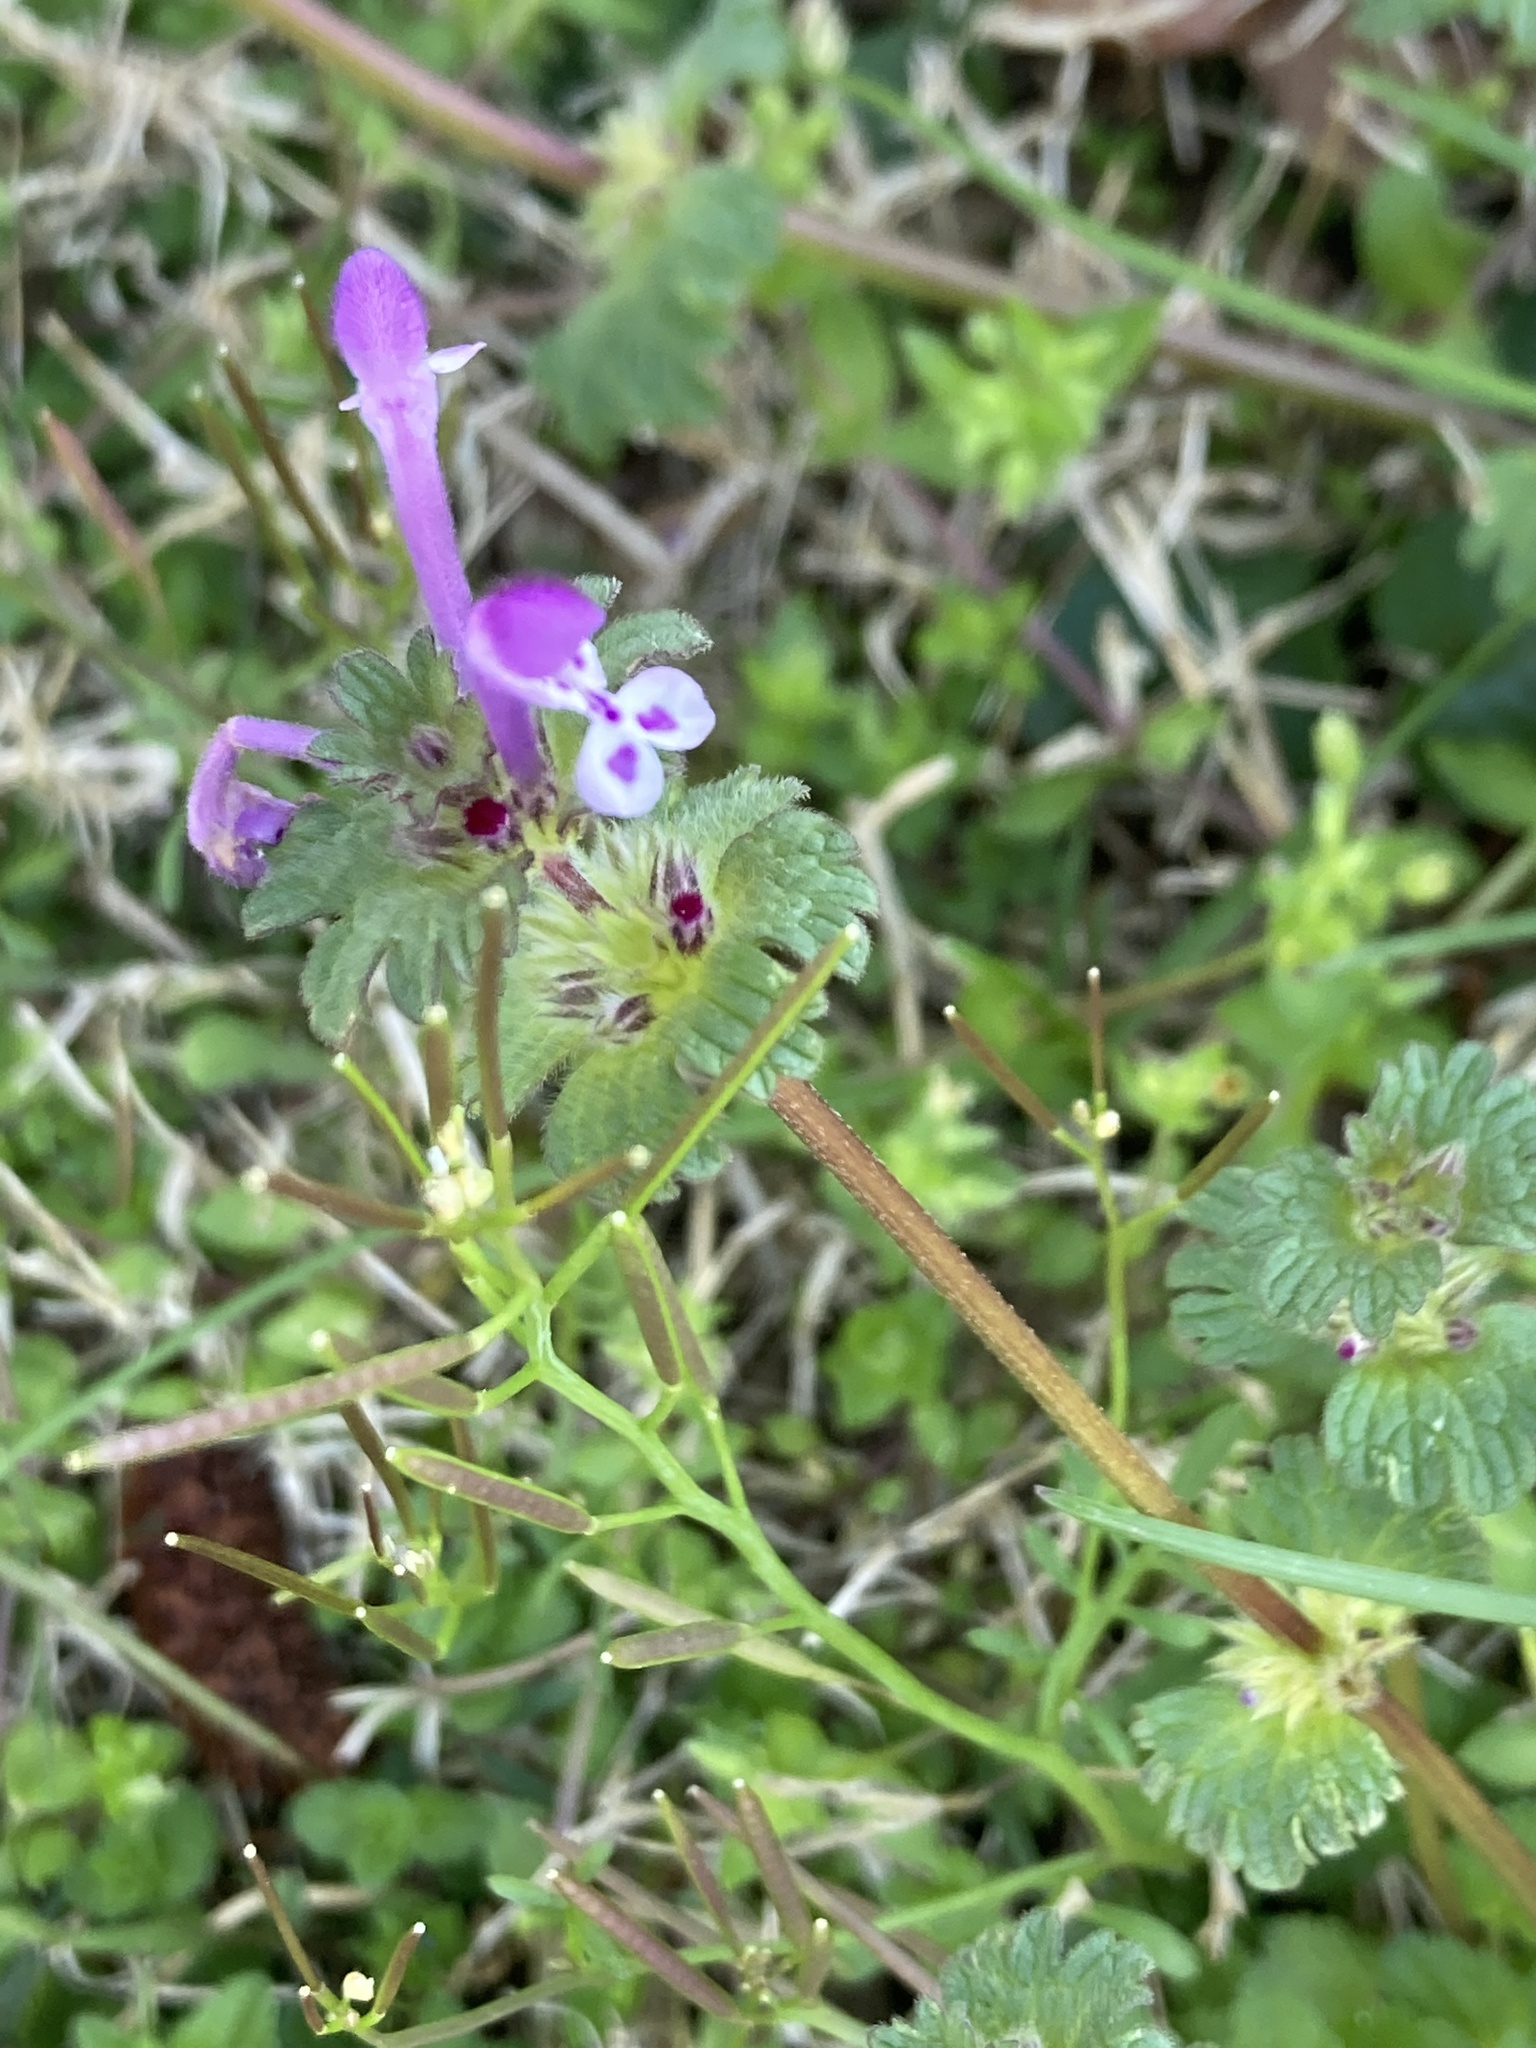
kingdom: Plantae
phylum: Tracheophyta
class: Magnoliopsida
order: Lamiales
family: Lamiaceae
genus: Lamium
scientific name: Lamium amplexicaule
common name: Henbit dead-nettle
